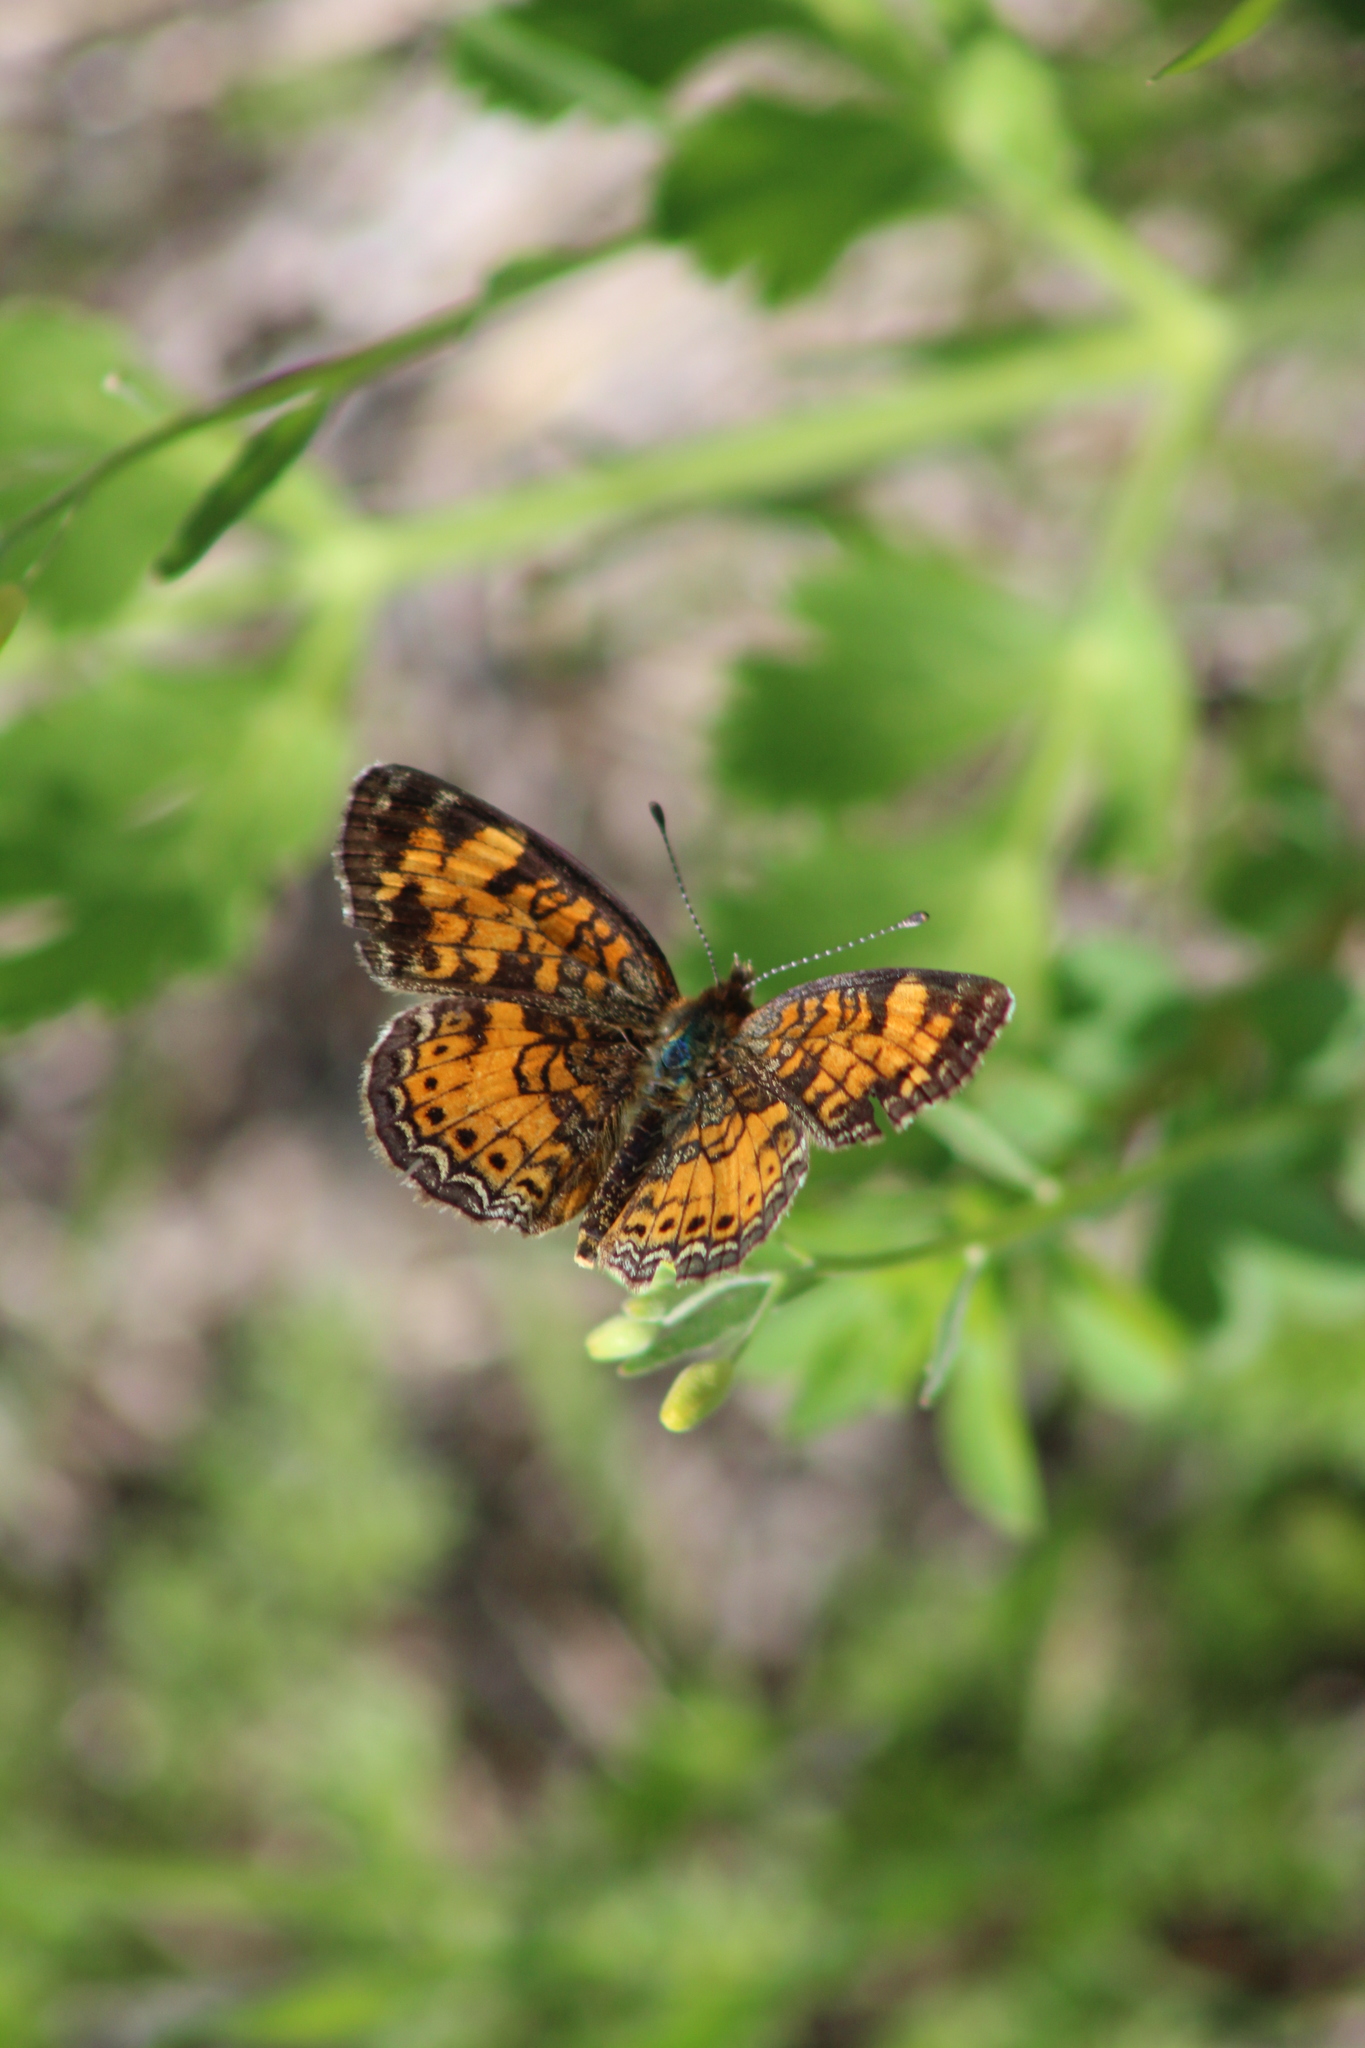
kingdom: Animalia
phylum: Arthropoda
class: Insecta
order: Lepidoptera
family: Nymphalidae
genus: Phyciodes
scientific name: Phyciodes tharos
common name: Pearl crescent
